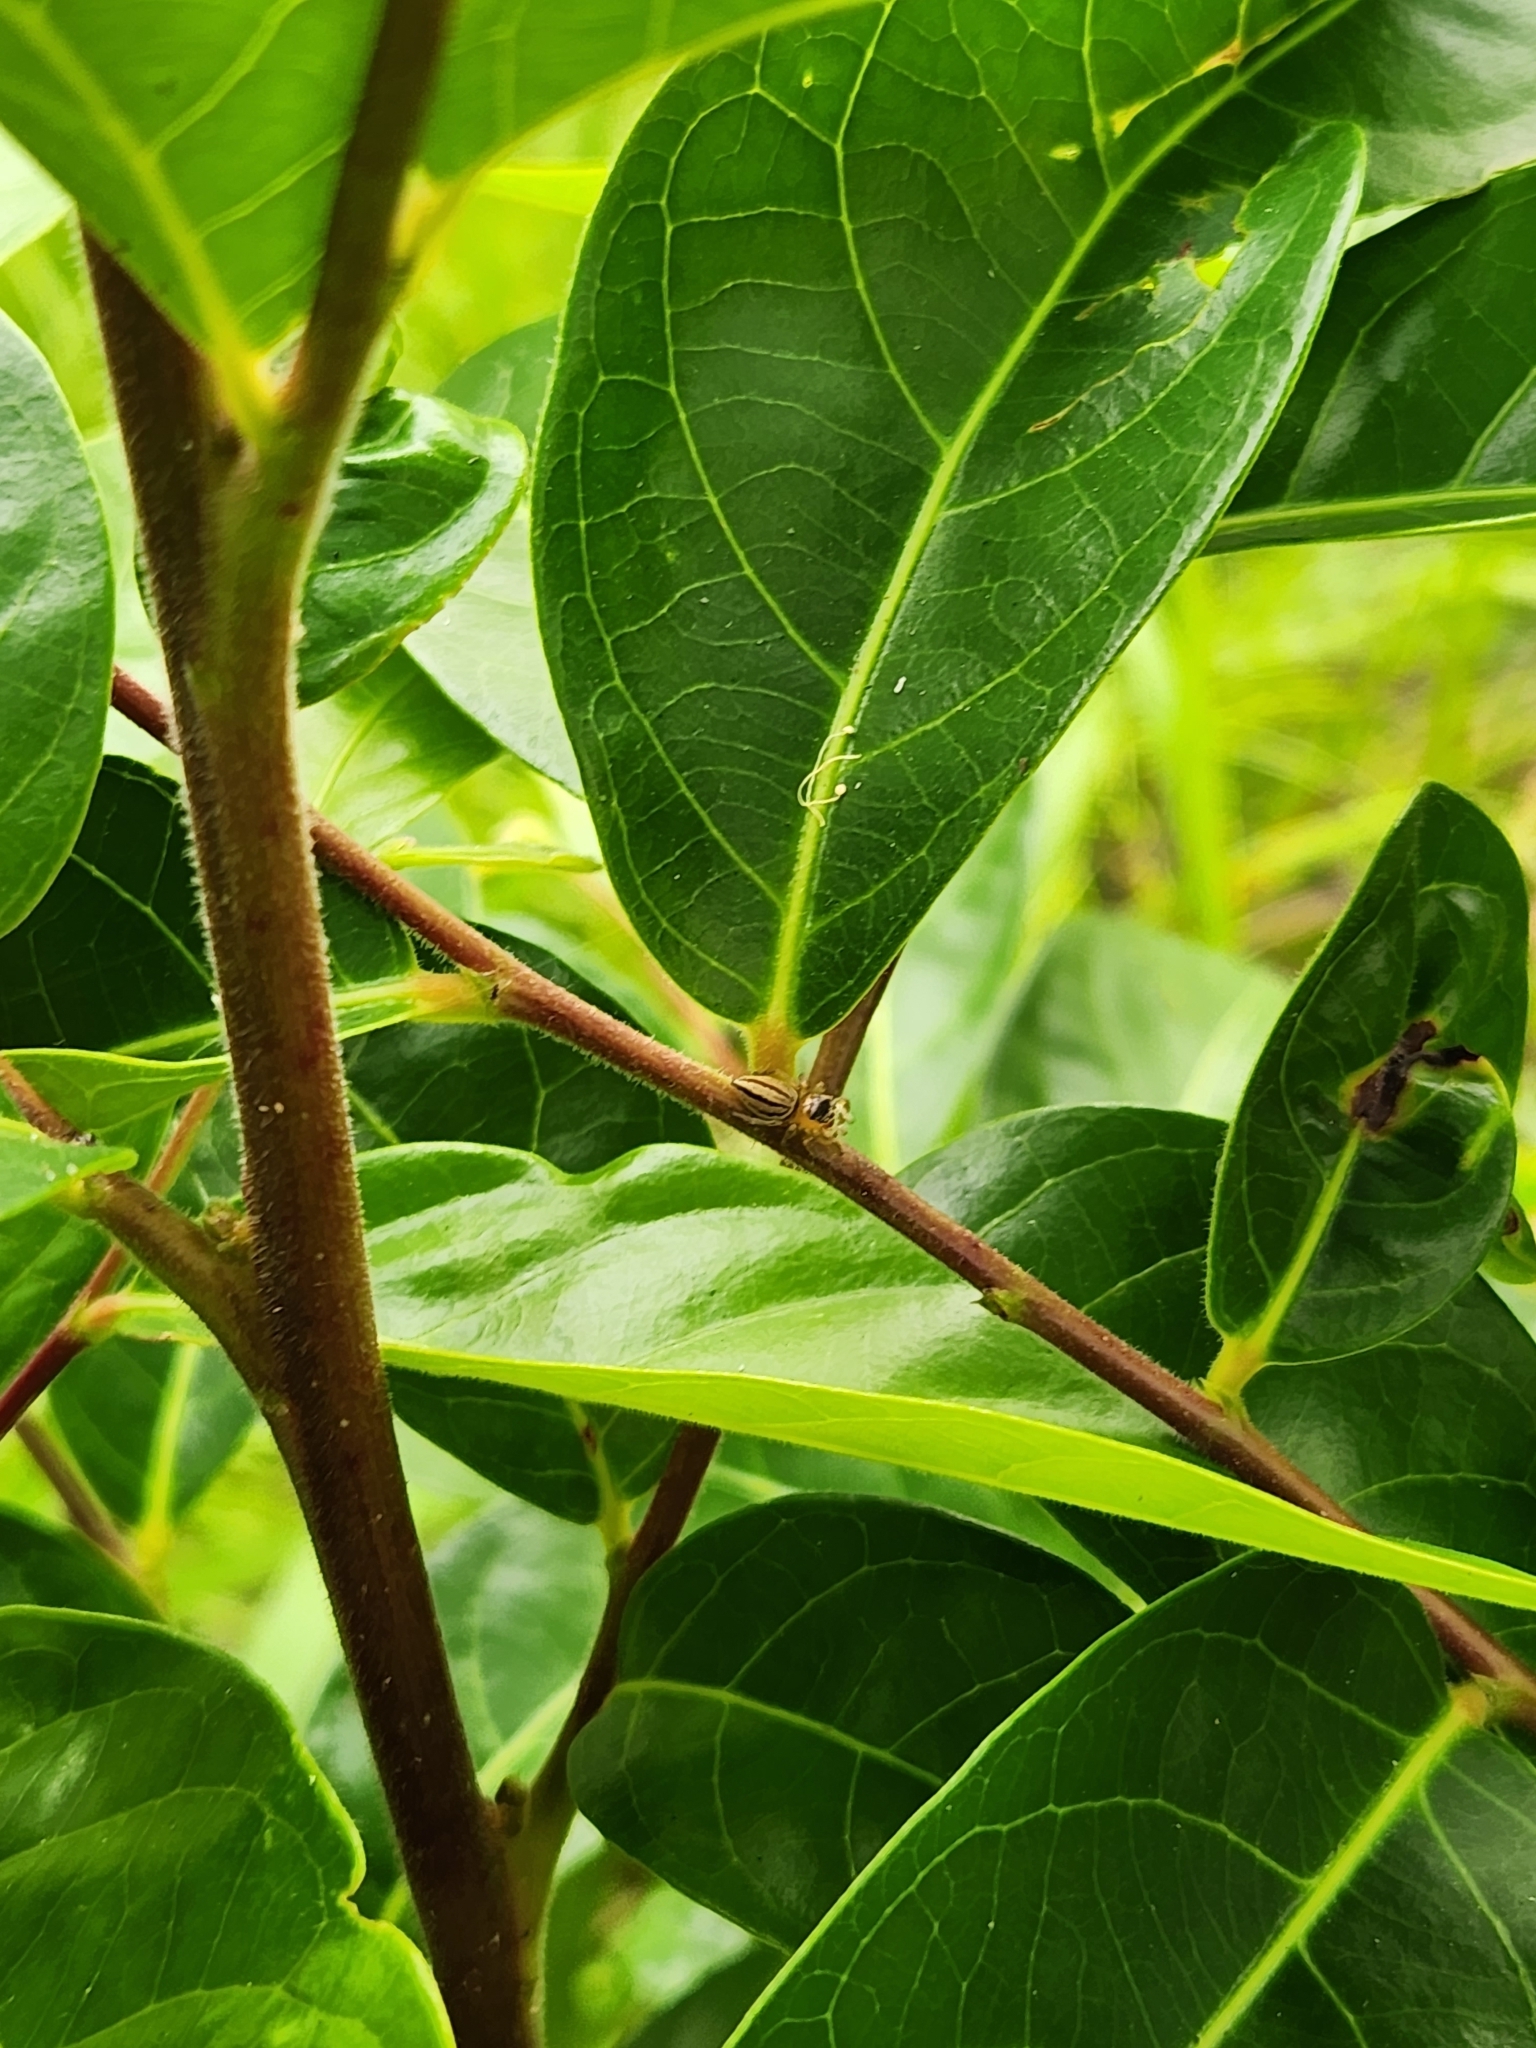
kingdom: Animalia
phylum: Arthropoda
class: Arachnida
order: Araneae
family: Salticidae
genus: Maratus
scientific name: Maratus scutulatus
